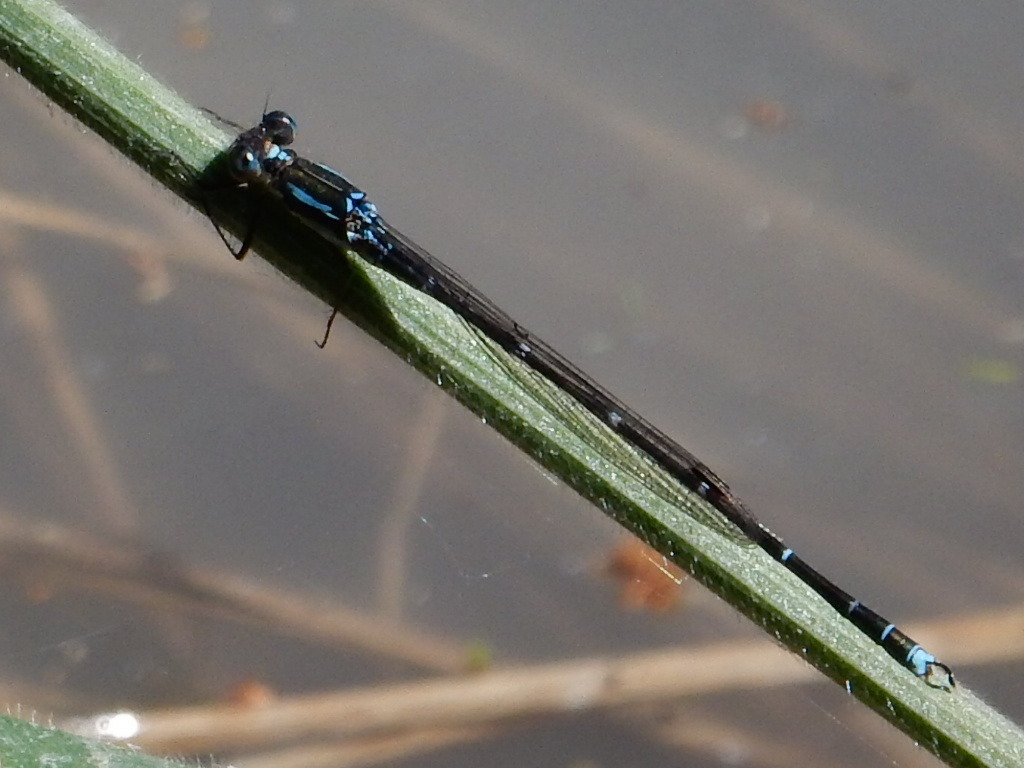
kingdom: Animalia
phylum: Arthropoda
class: Insecta
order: Odonata
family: Lestidae
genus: Austrolestes
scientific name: Austrolestes colensonis
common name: Blue damselfly
